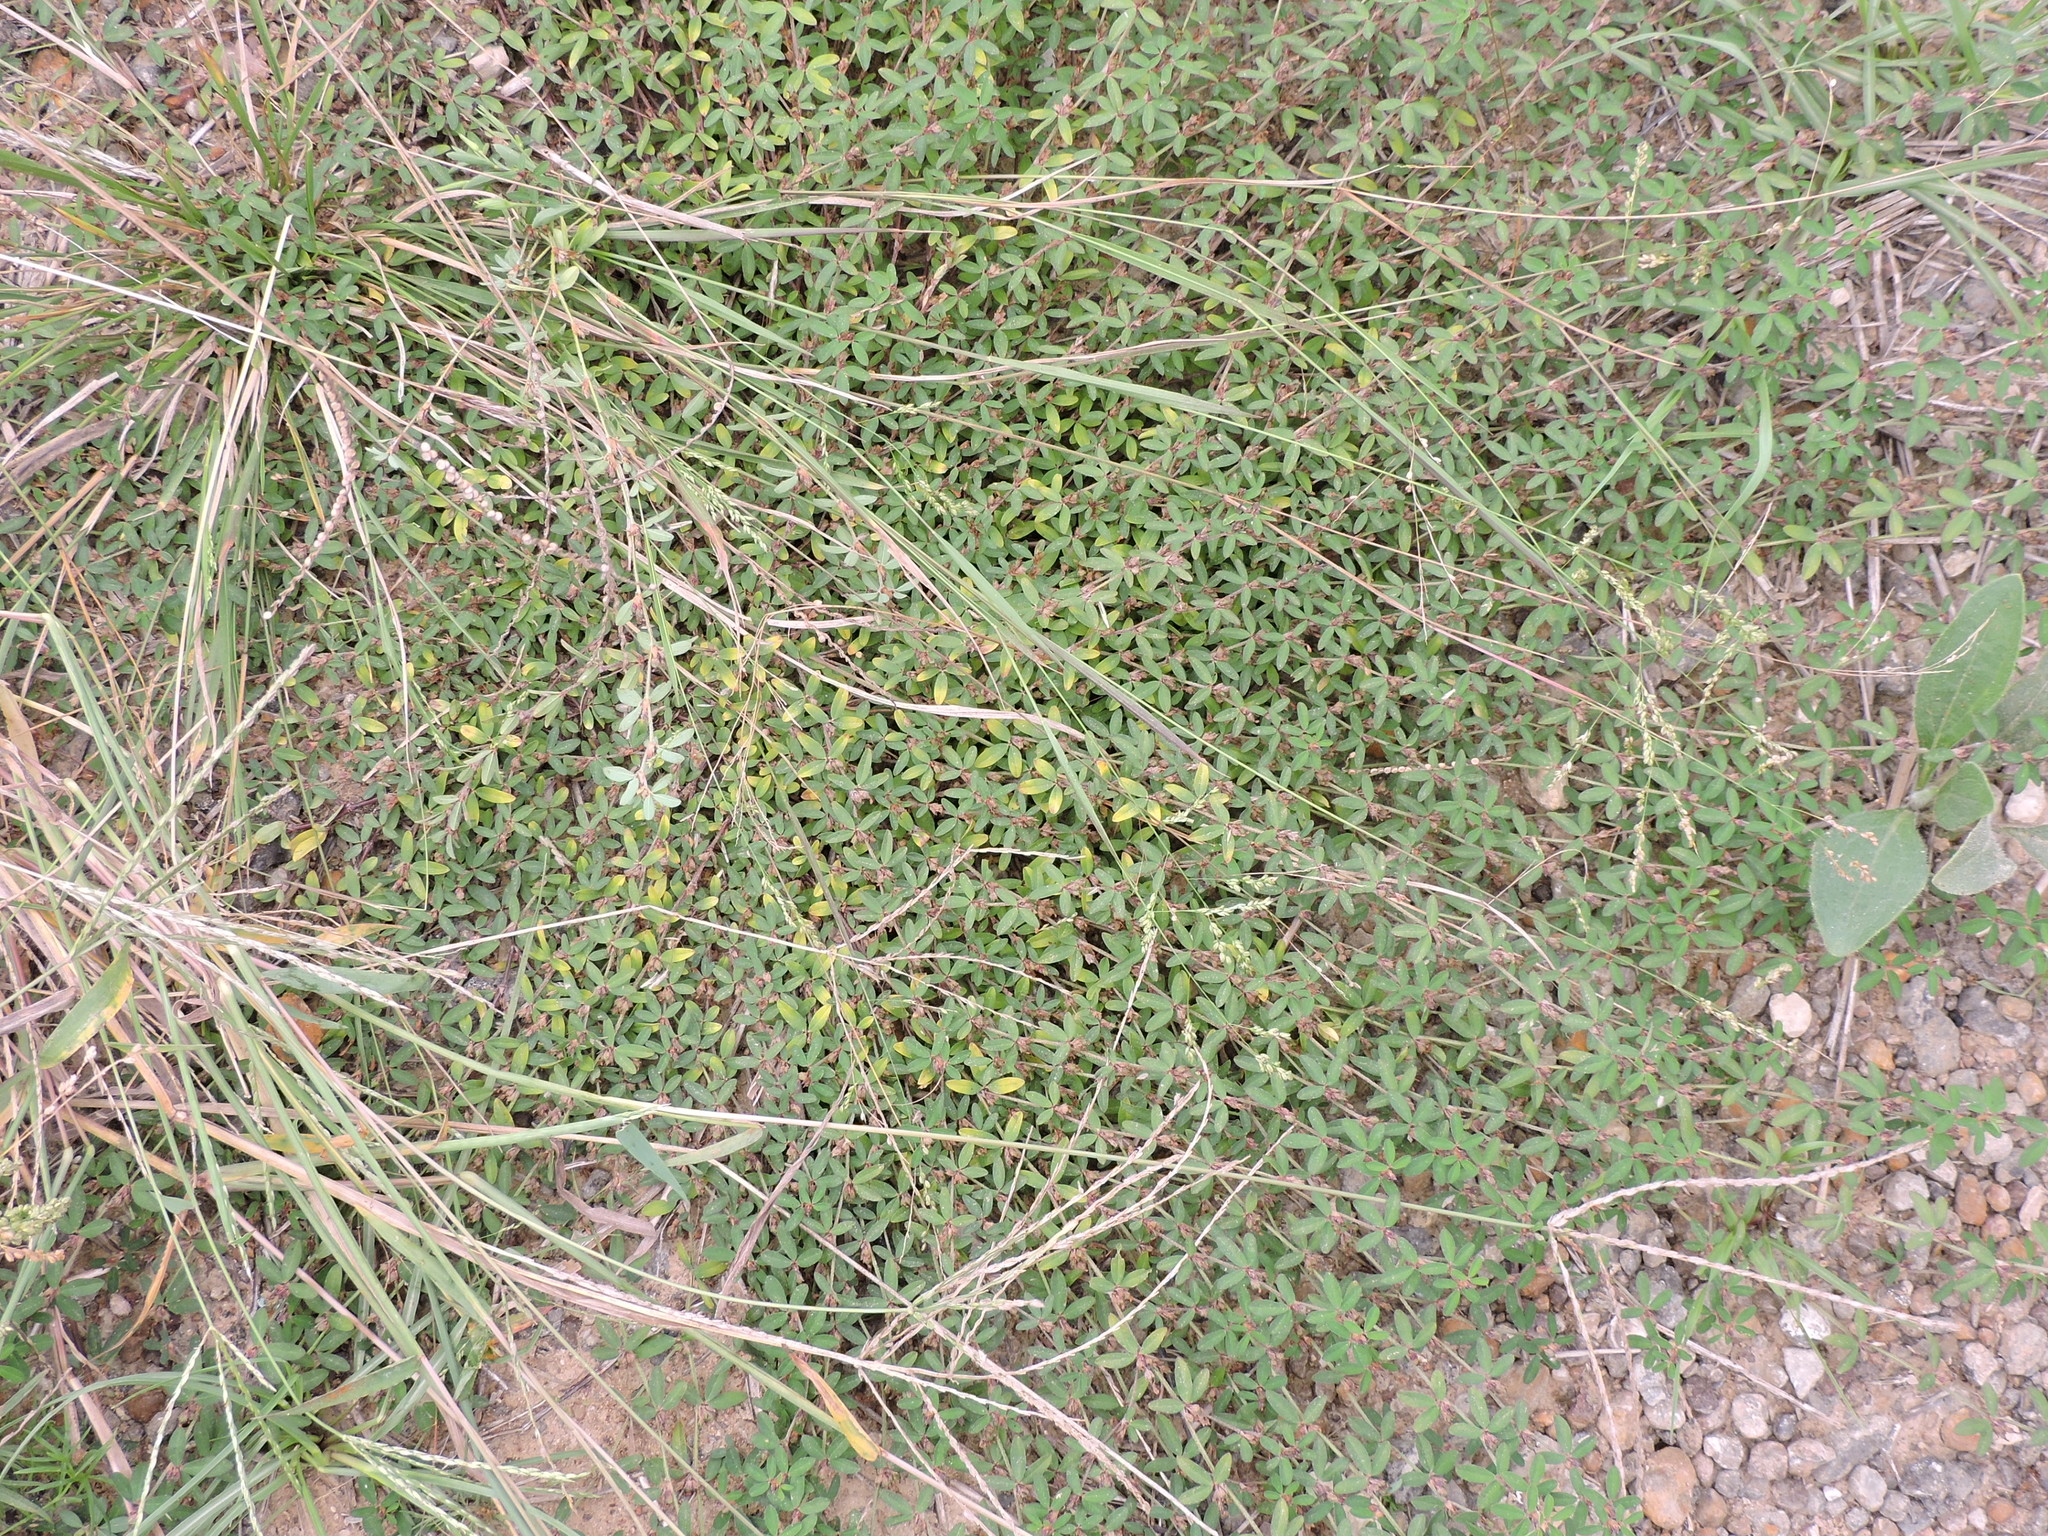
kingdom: Plantae
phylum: Tracheophyta
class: Magnoliopsida
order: Fabales
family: Fabaceae
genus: Kummerowia
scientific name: Kummerowia striata
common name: Japanese clover
